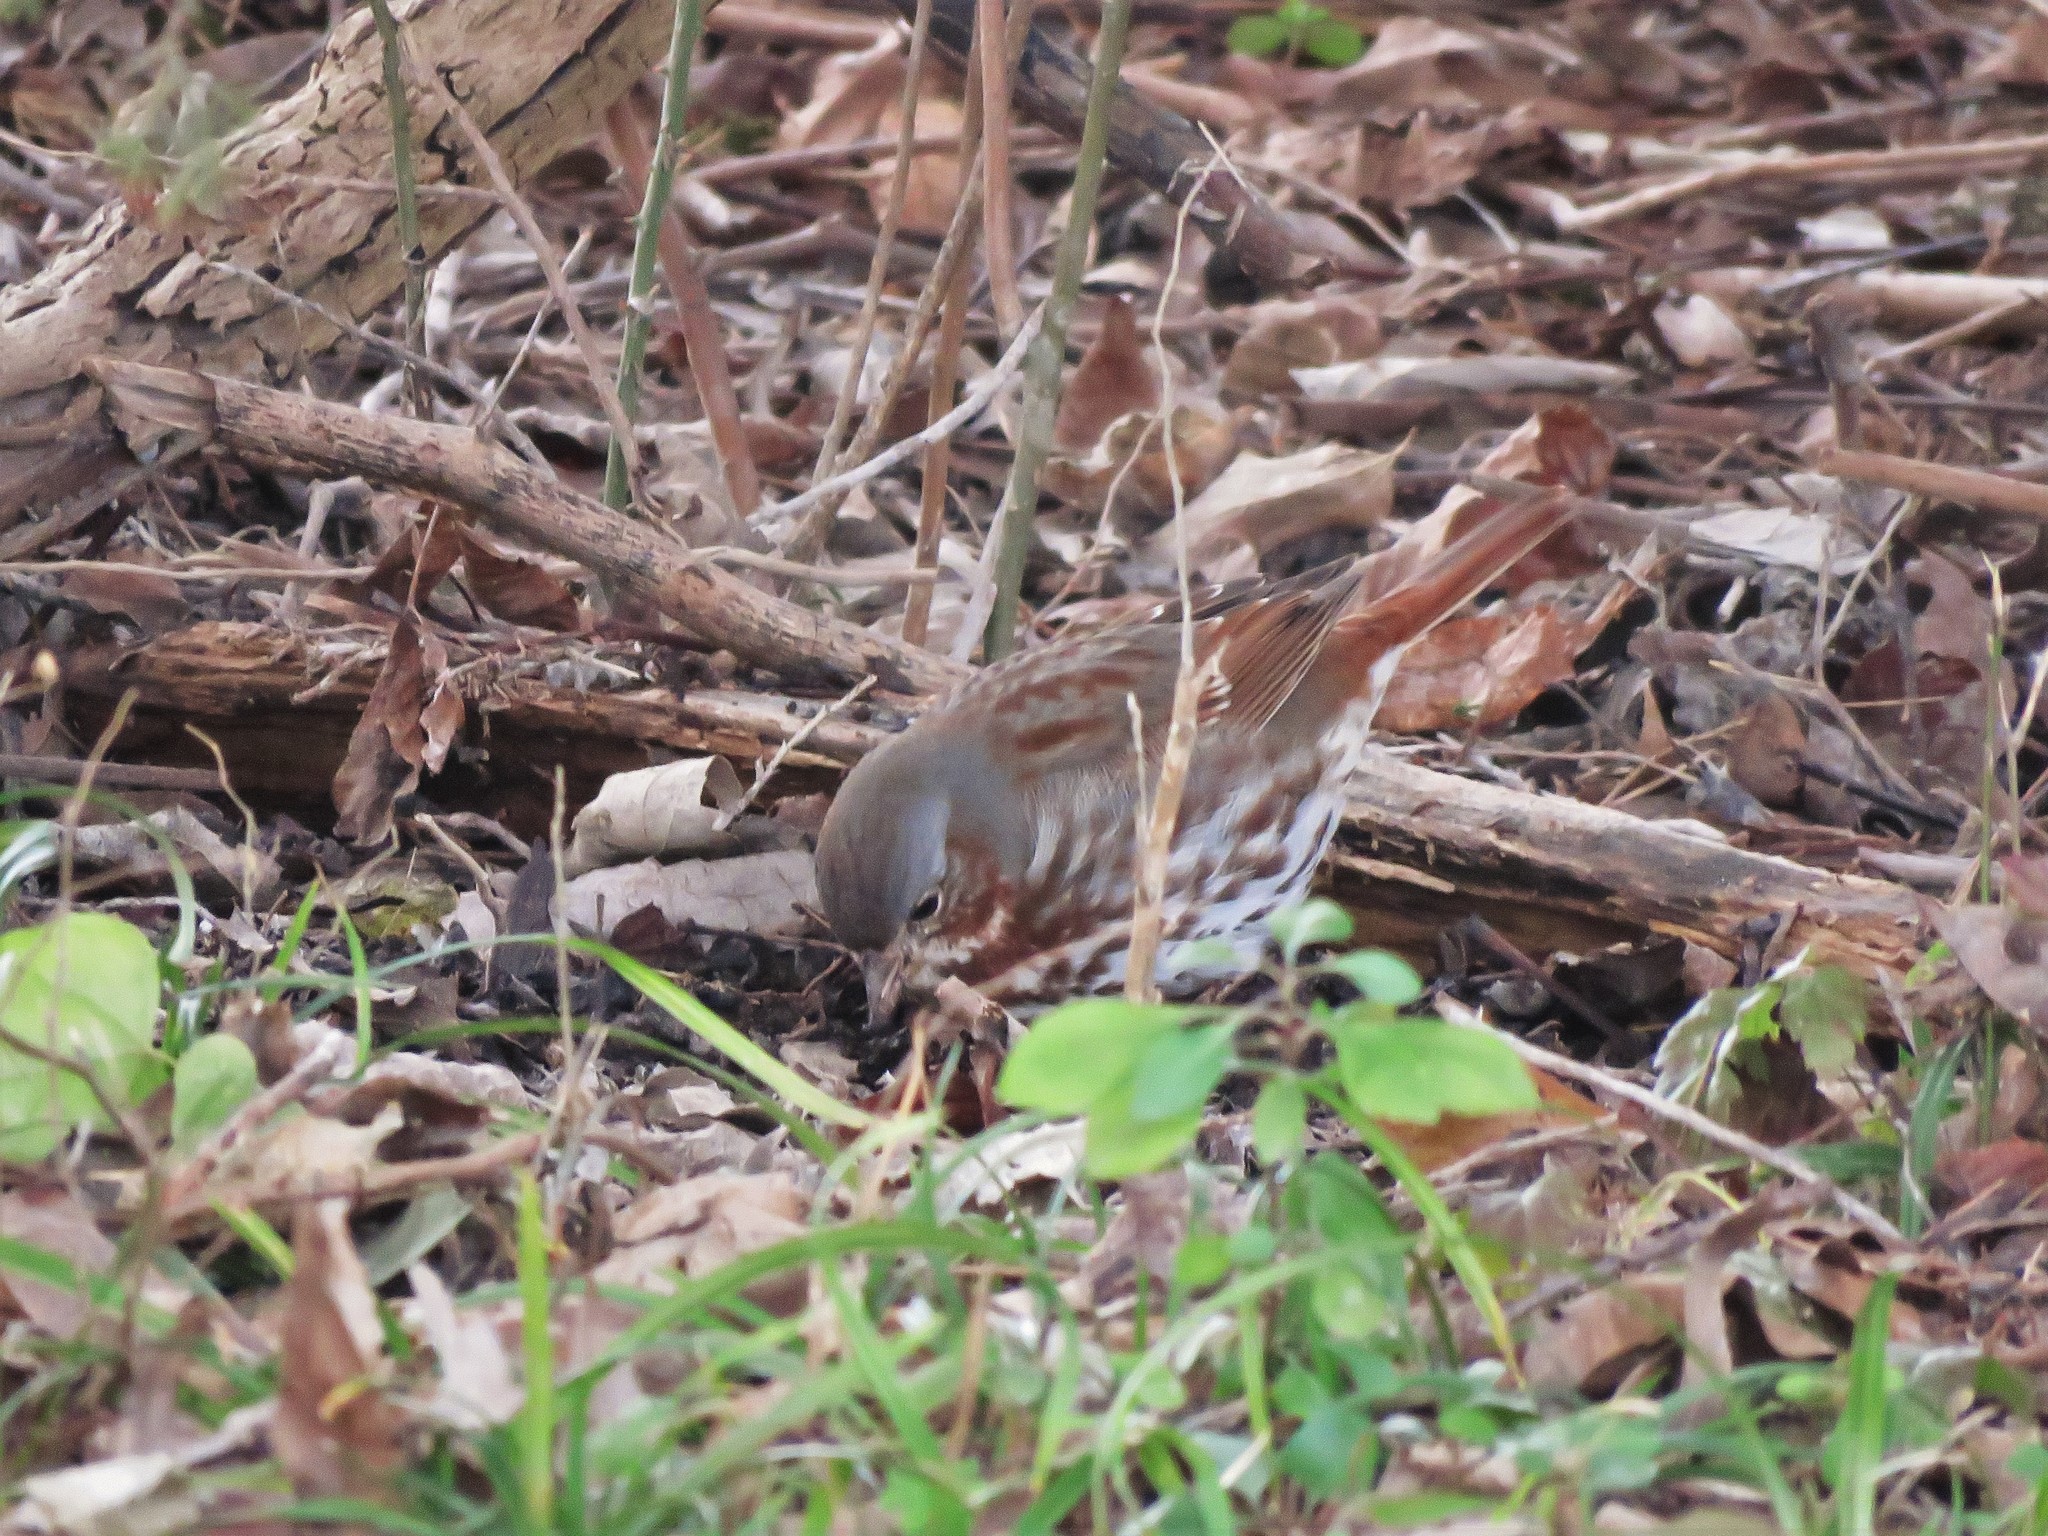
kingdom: Animalia
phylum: Chordata
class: Aves
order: Passeriformes
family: Passerellidae
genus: Passerella
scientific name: Passerella iliaca
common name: Fox sparrow
